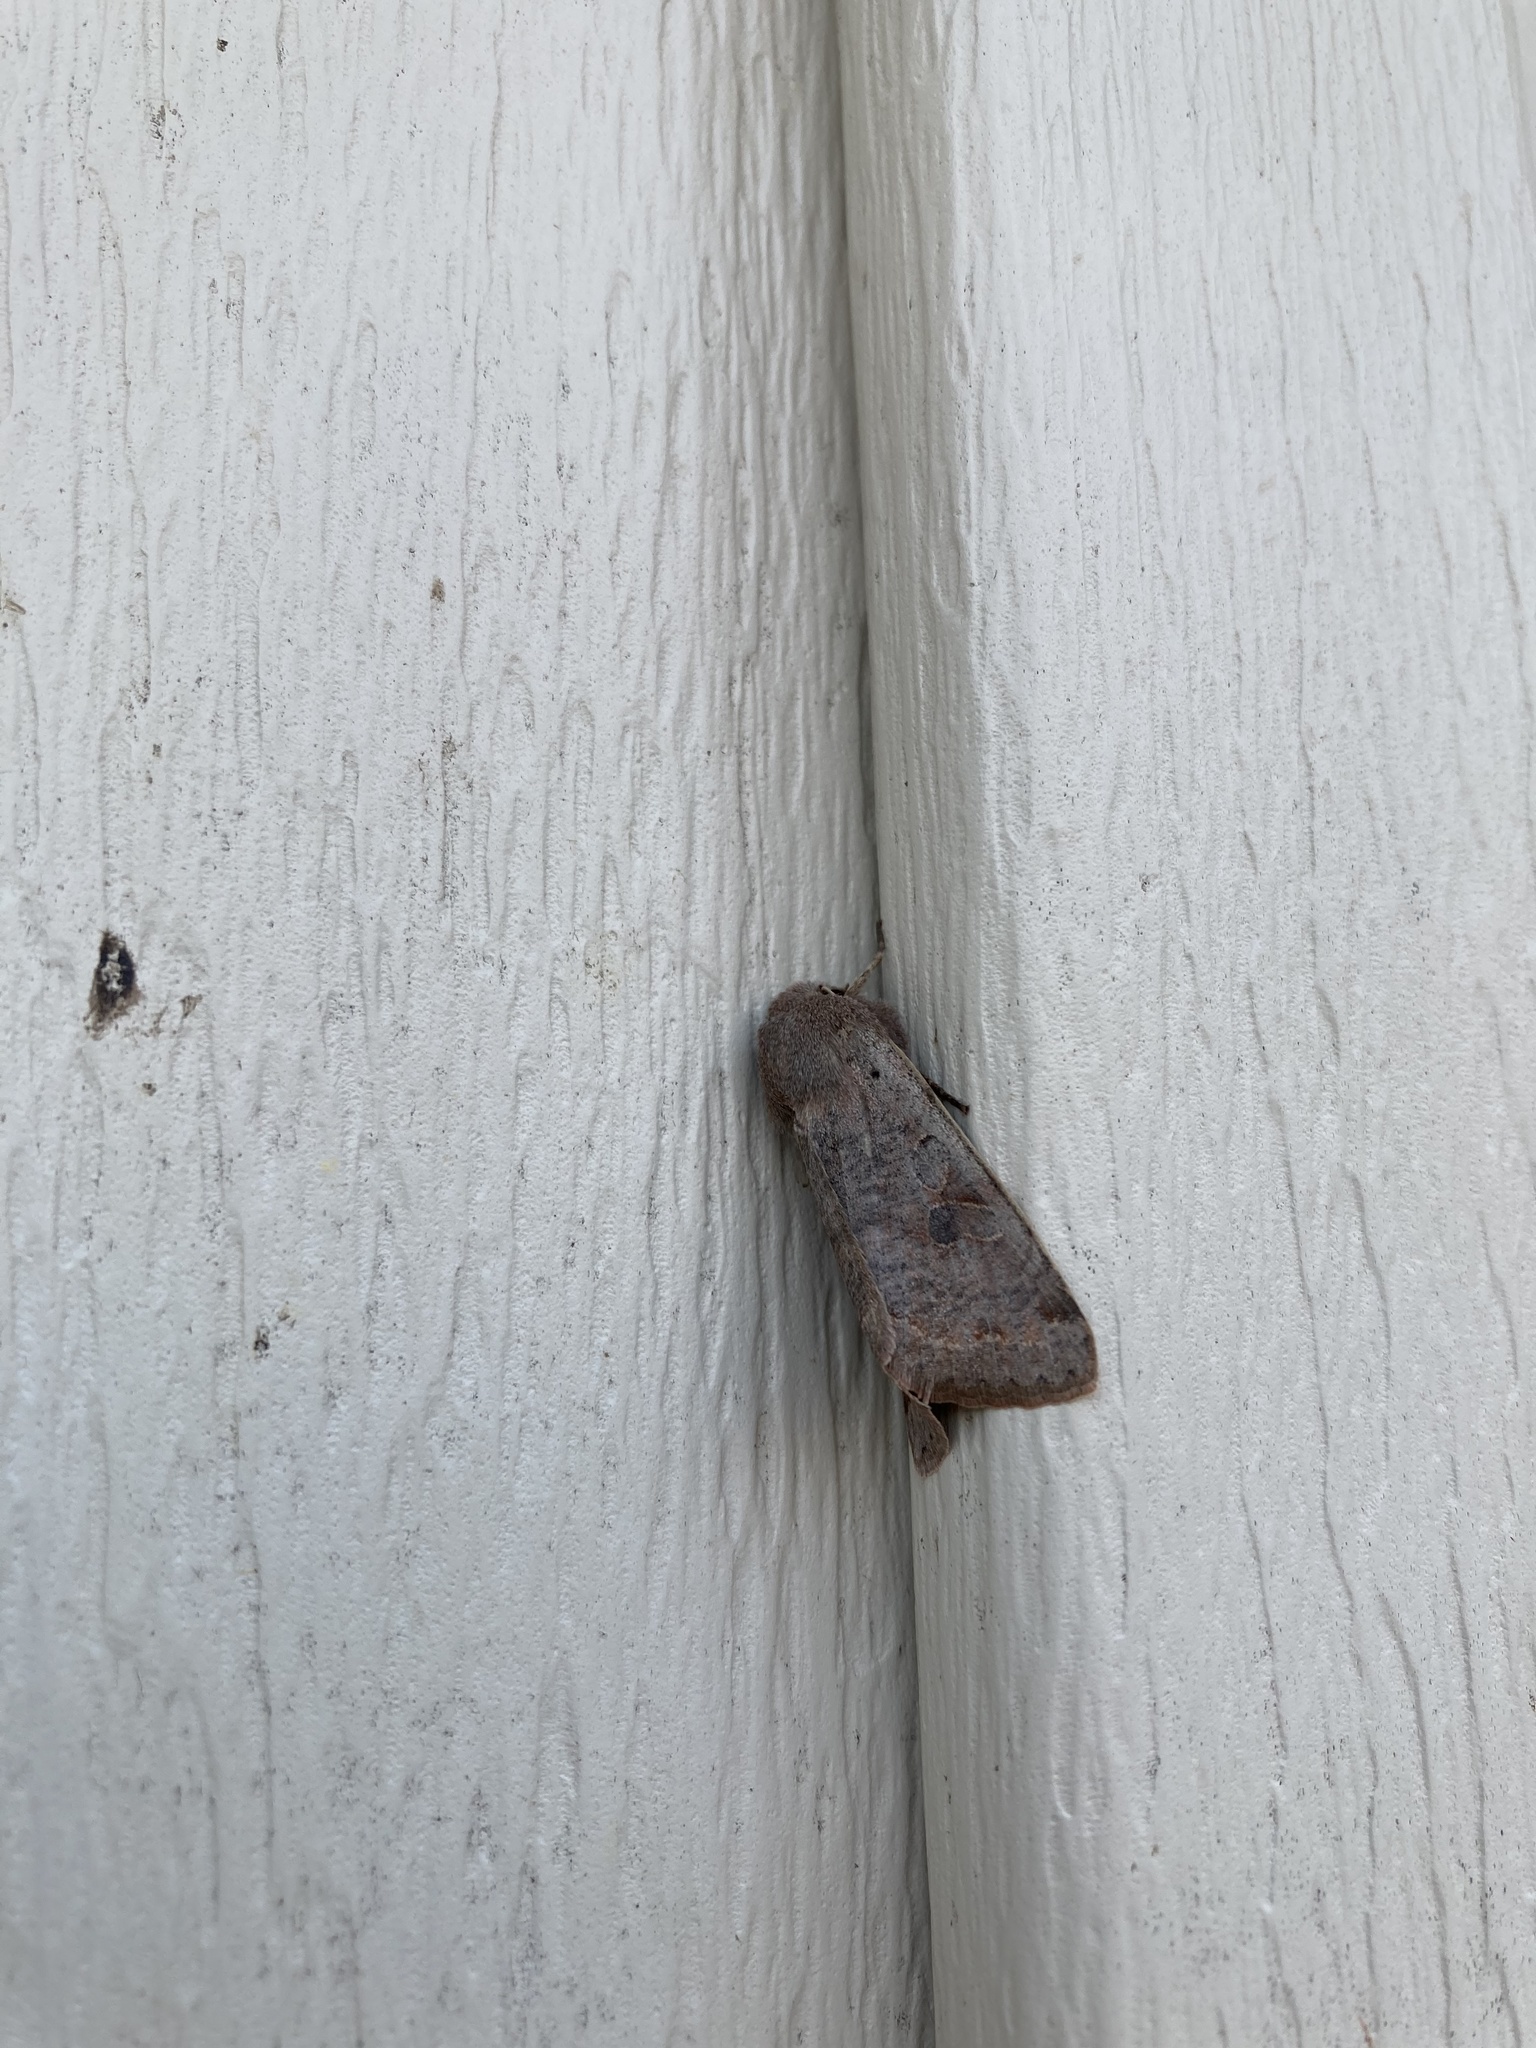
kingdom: Animalia
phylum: Arthropoda
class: Insecta
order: Lepidoptera
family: Noctuidae
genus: Orthosia
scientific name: Orthosia hibisci
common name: Green fruitworm
